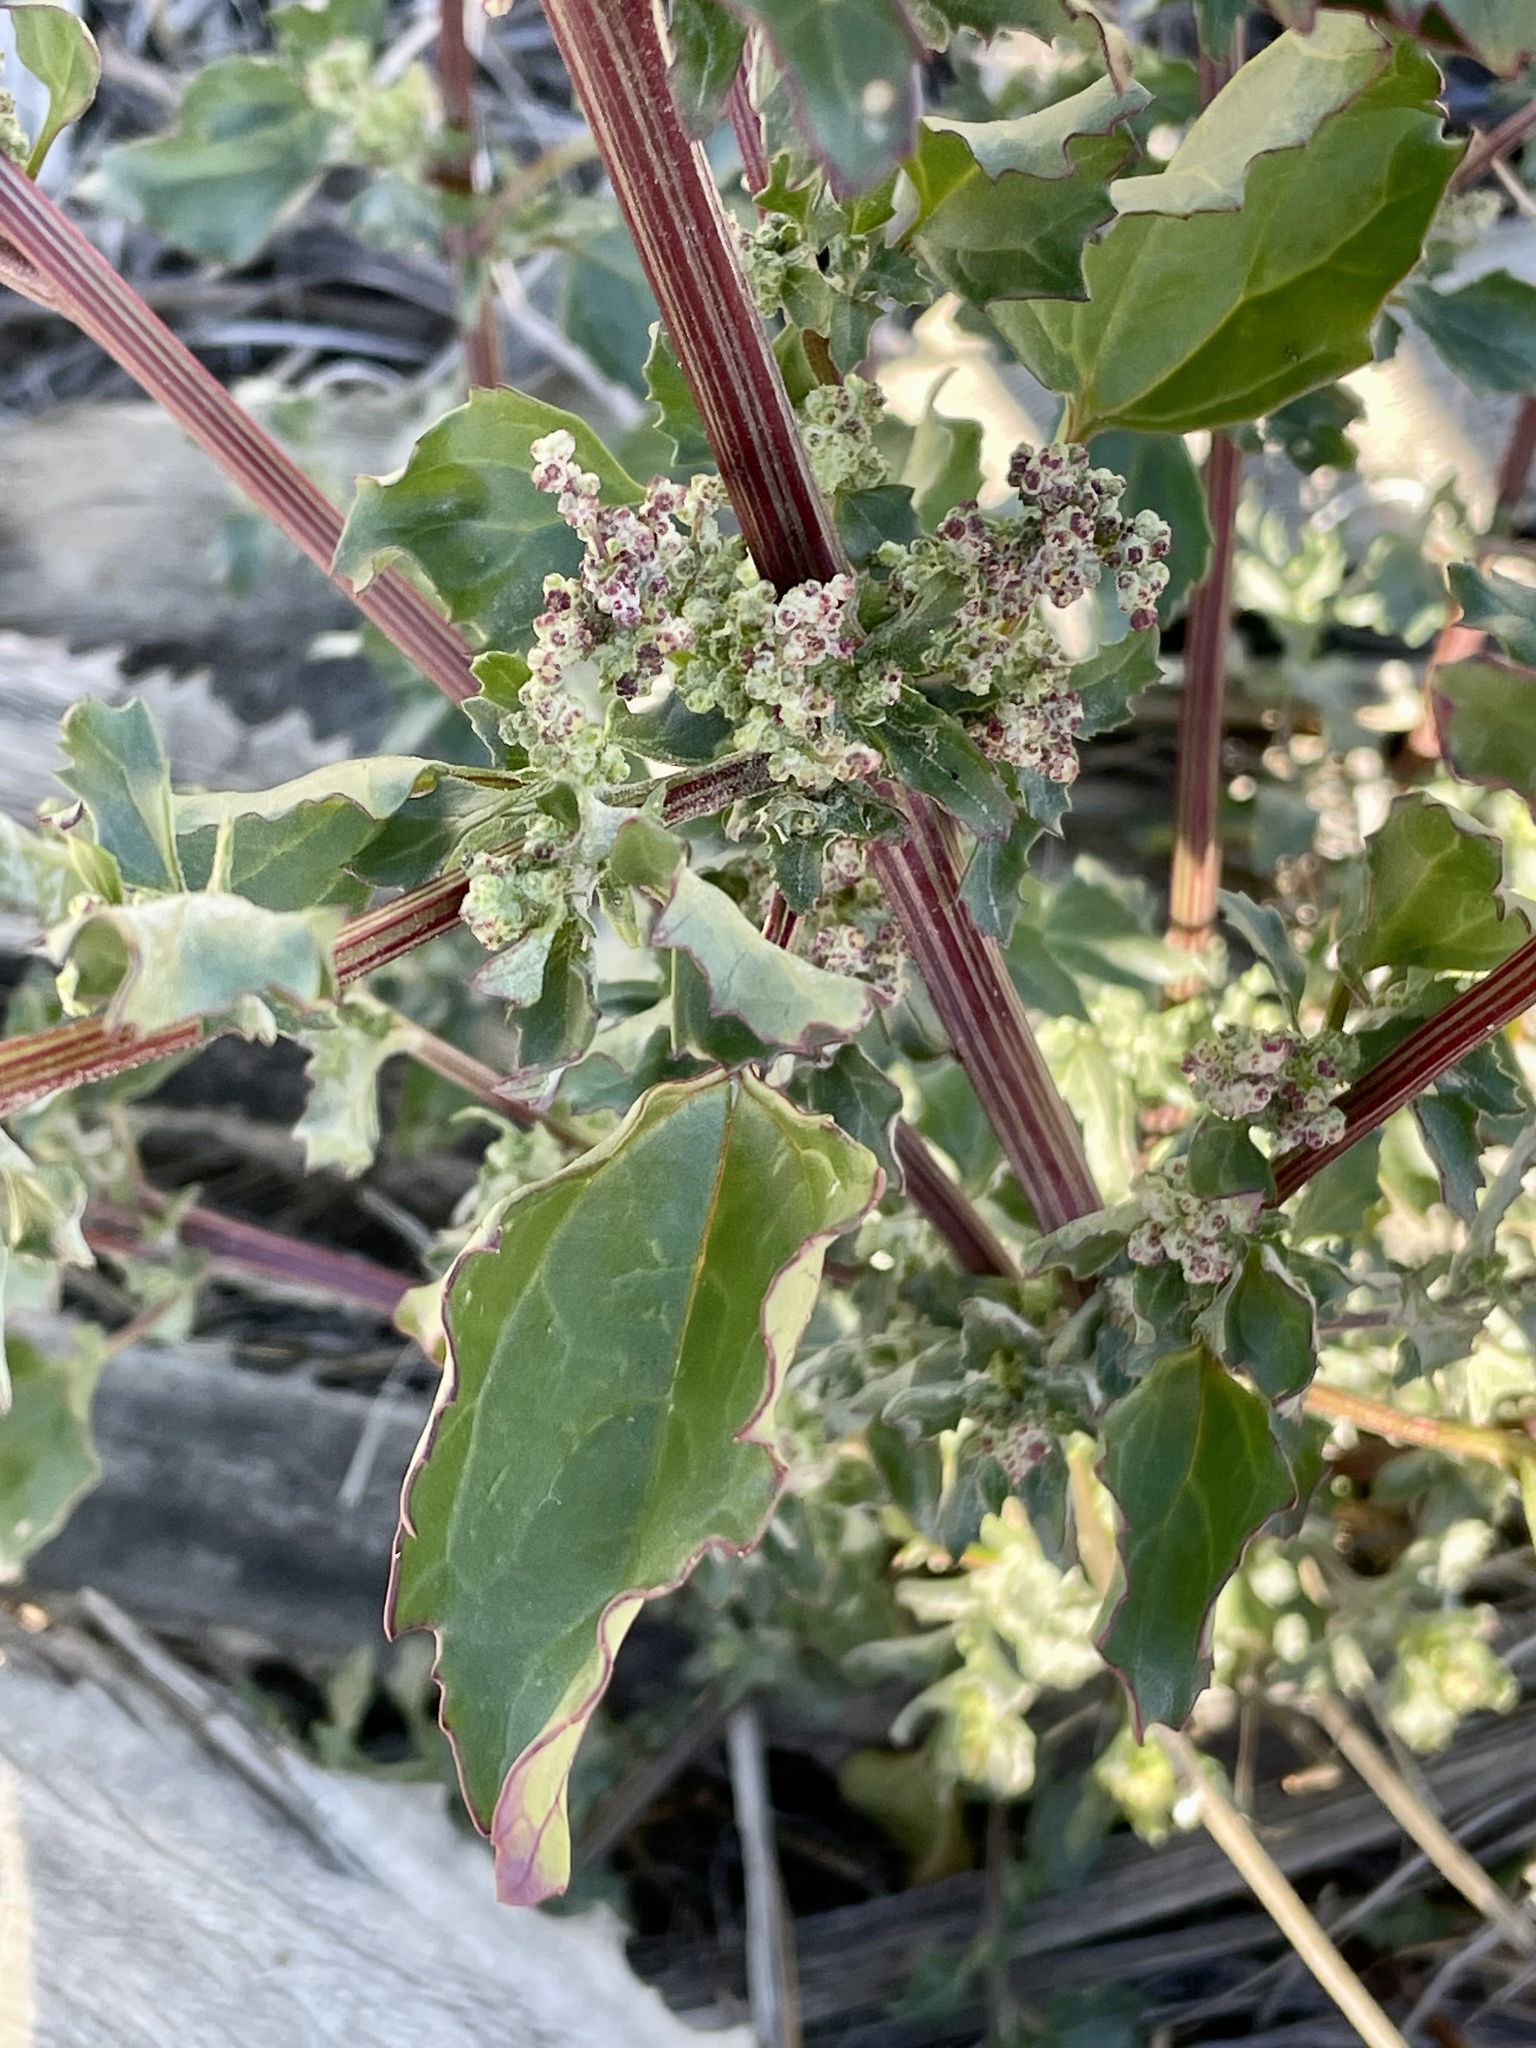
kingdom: Plantae
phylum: Tracheophyta
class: Magnoliopsida
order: Caryophyllales
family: Amaranthaceae
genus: Chenopodiastrum
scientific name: Chenopodiastrum murale
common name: Sowbane
